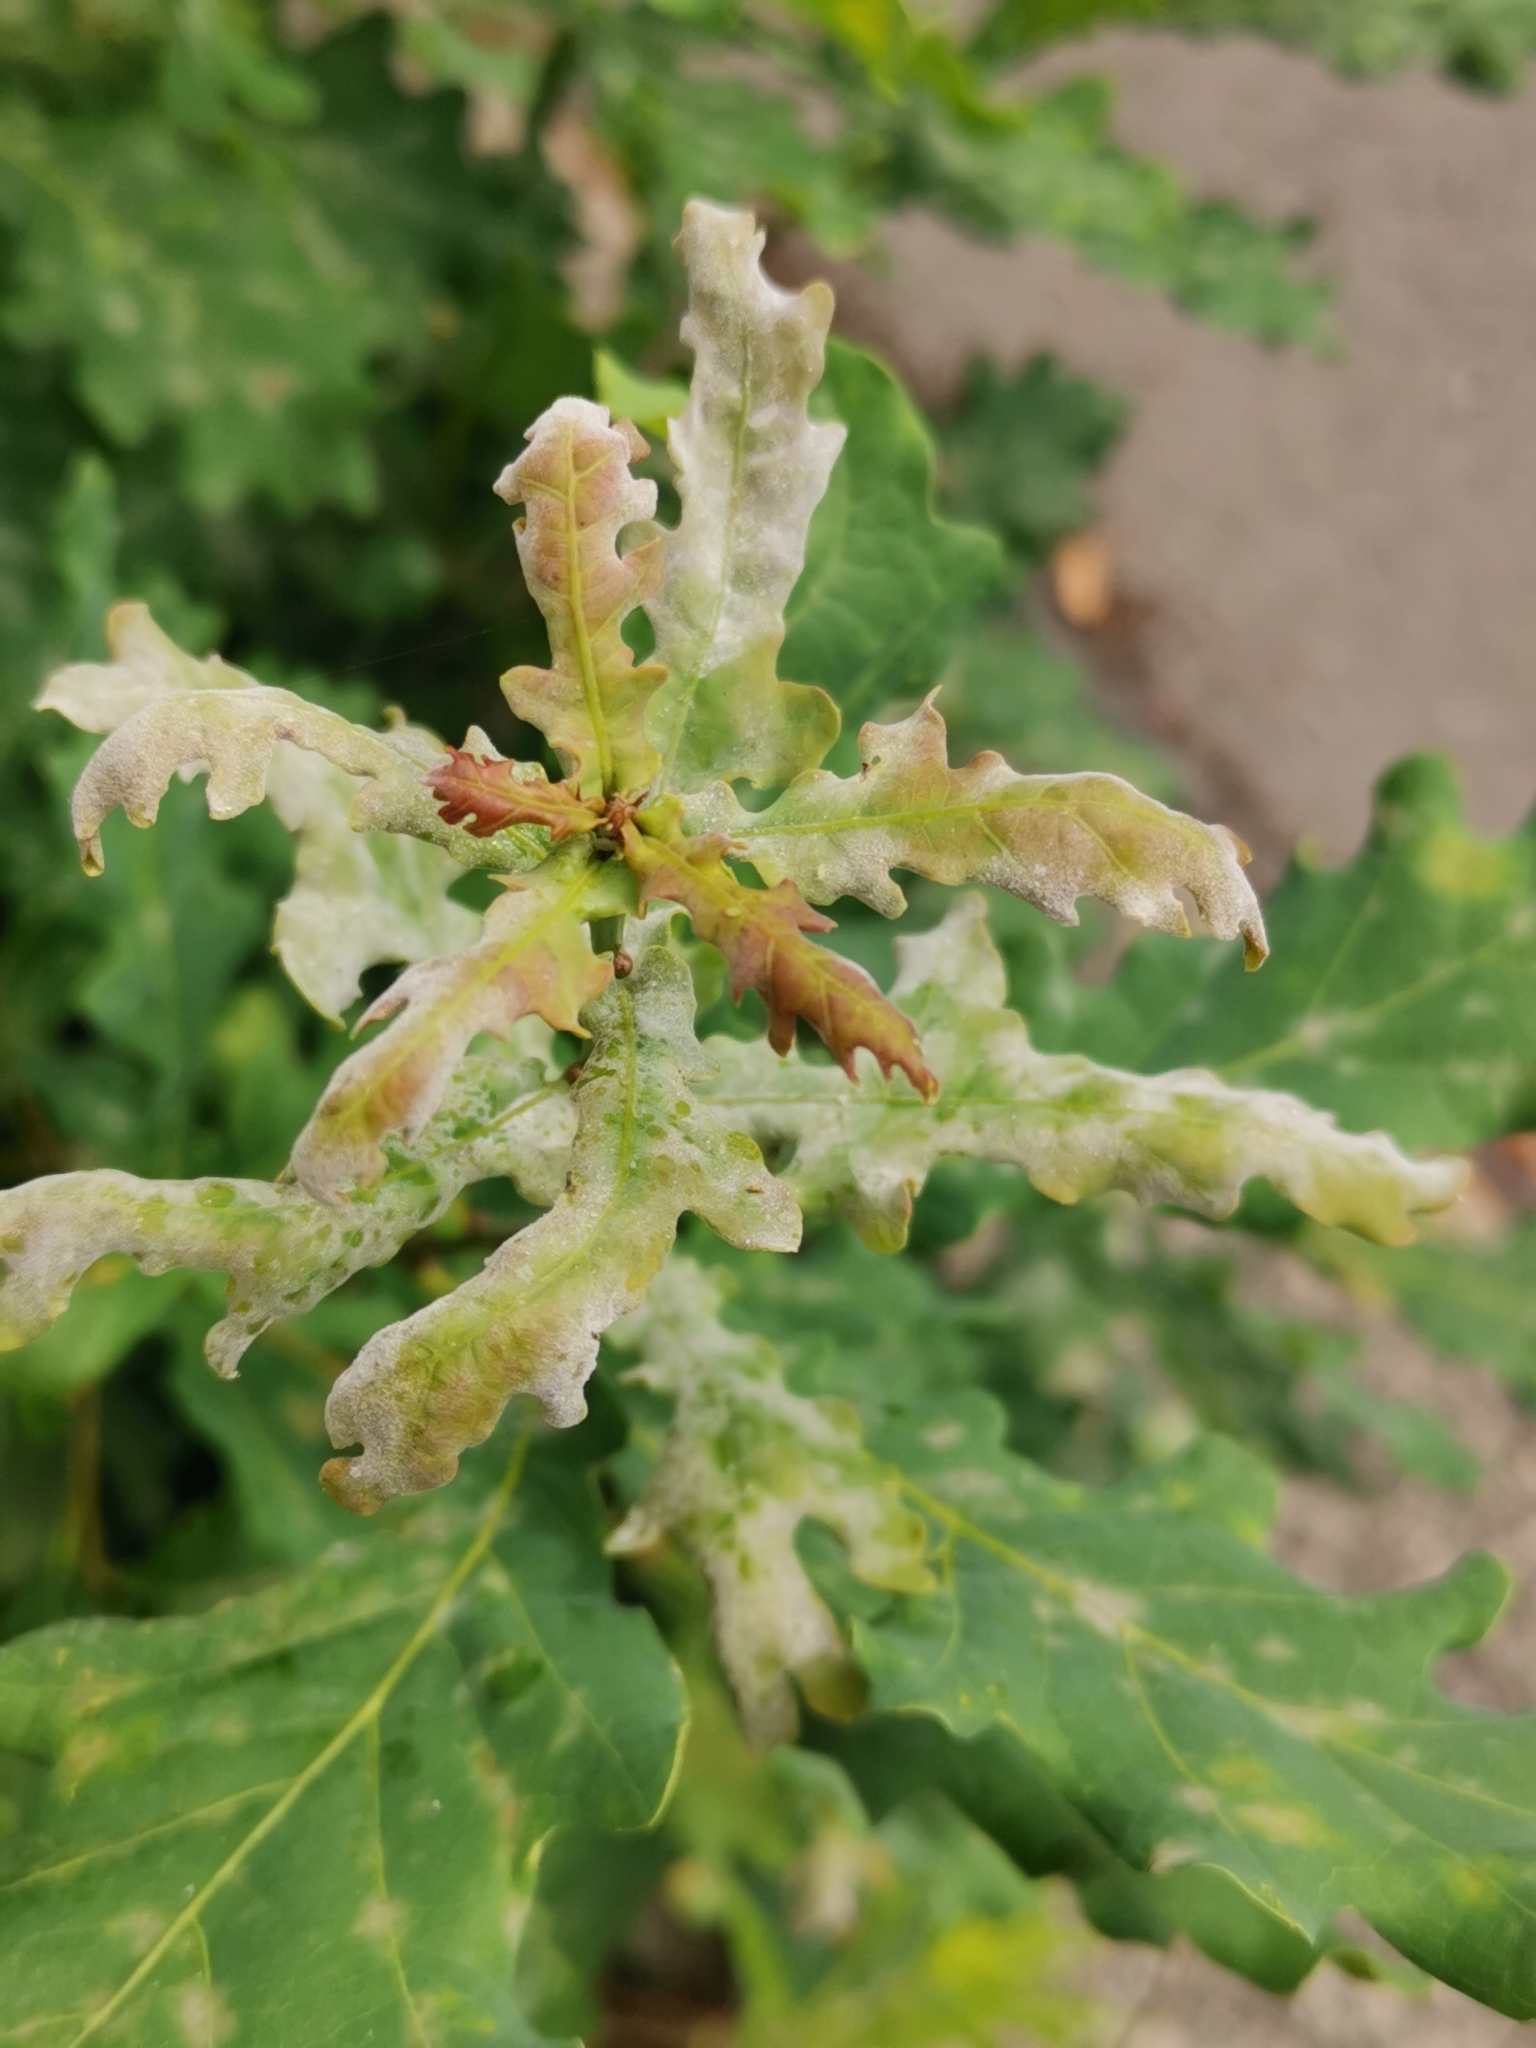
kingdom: Fungi
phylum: Ascomycota
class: Leotiomycetes
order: Helotiales
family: Erysiphaceae
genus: Erysiphe
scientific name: Erysiphe
